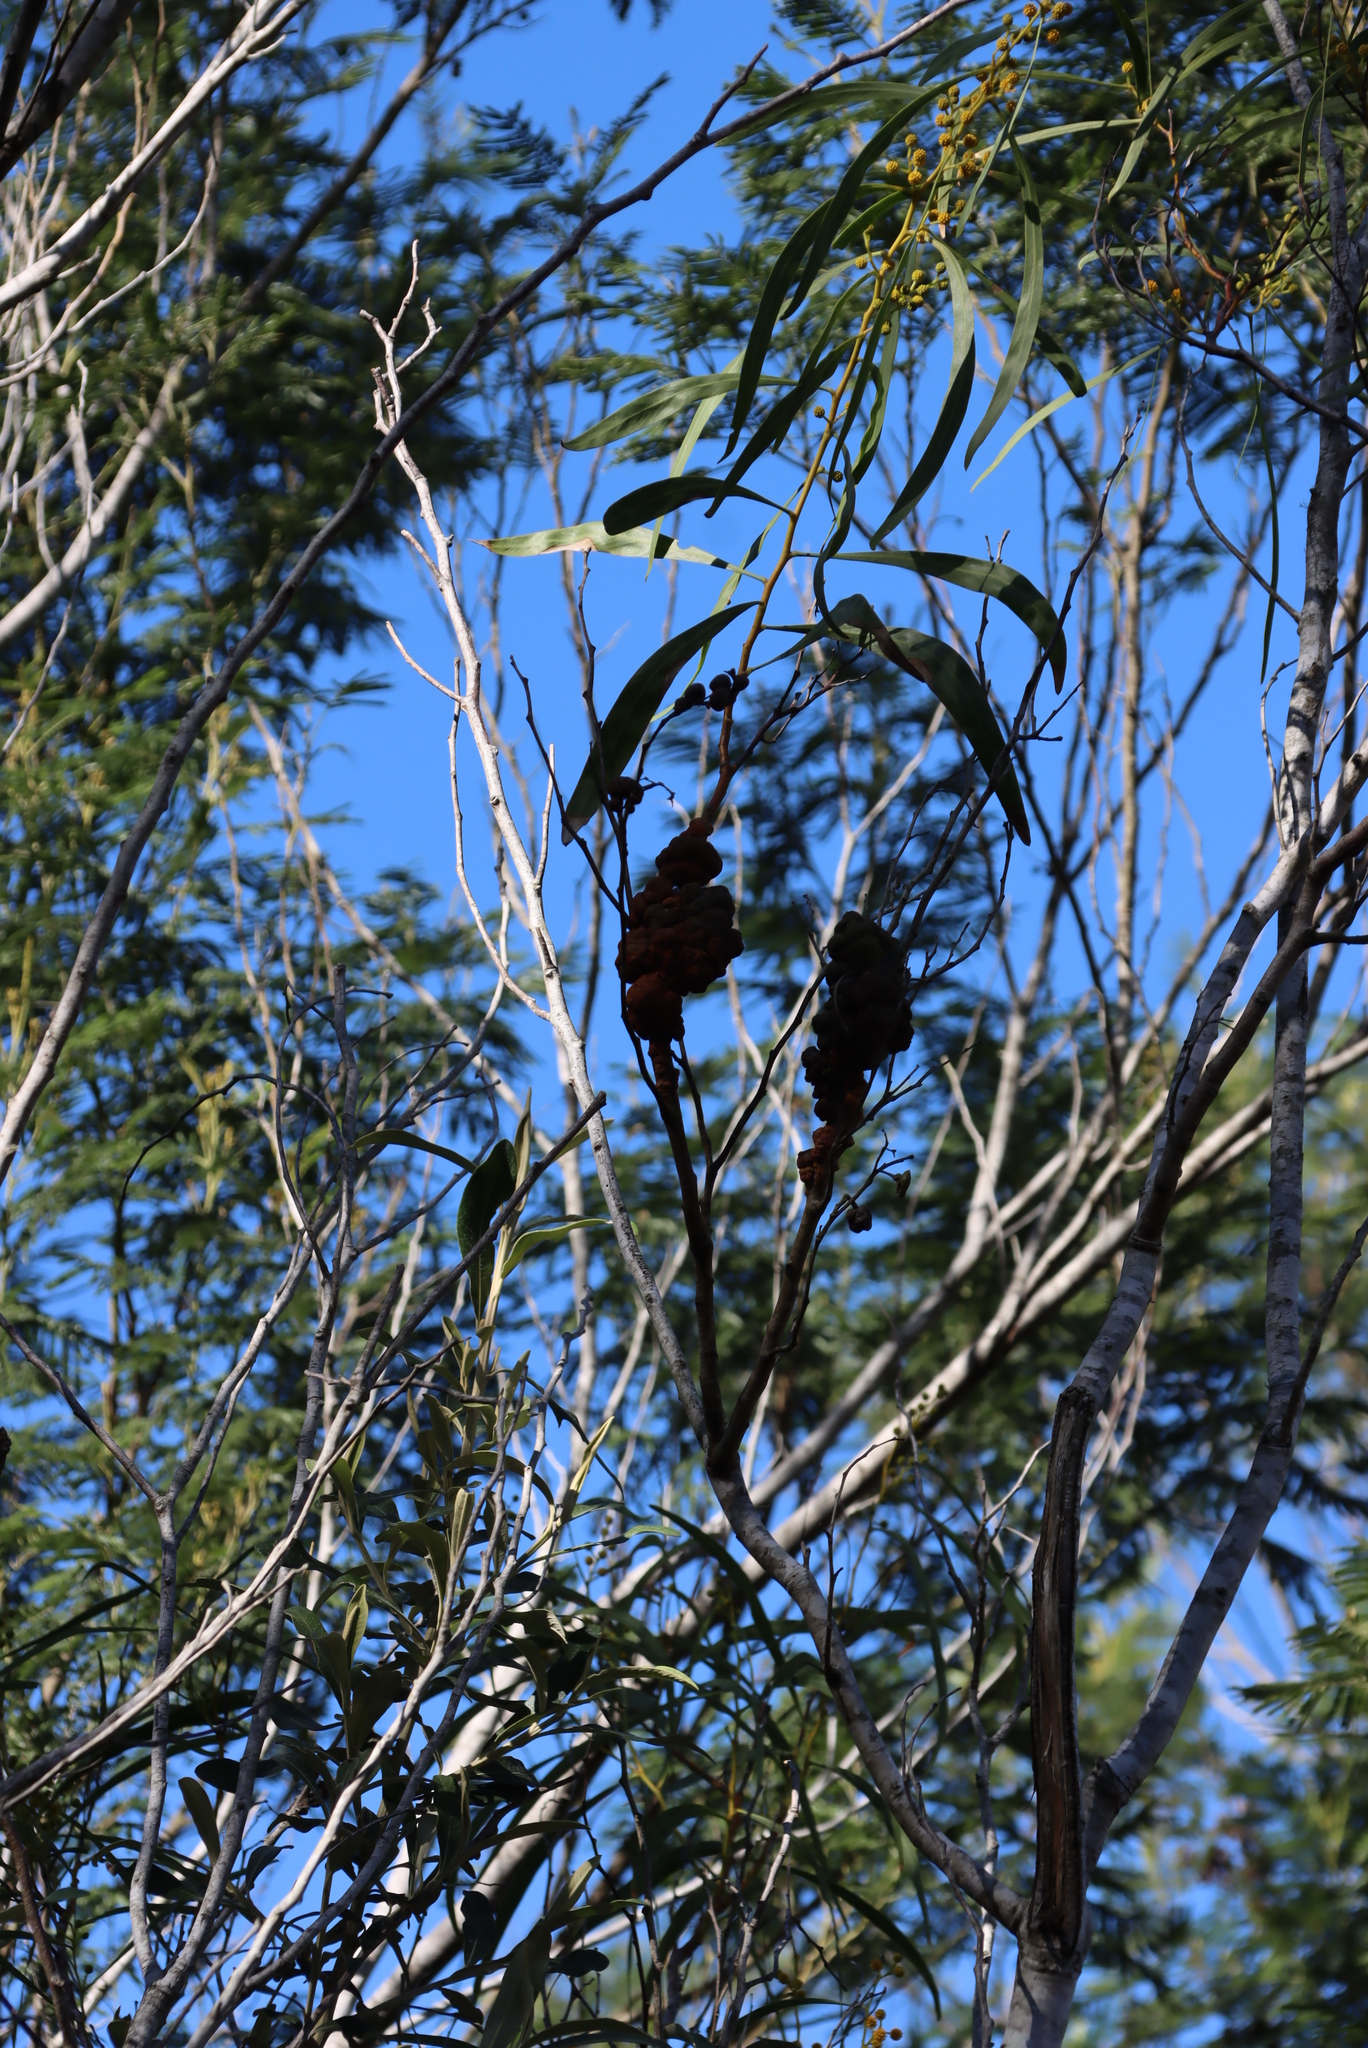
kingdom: Plantae
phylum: Tracheophyta
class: Magnoliopsida
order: Fabales
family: Fabaceae
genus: Acacia
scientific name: Acacia saligna
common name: Orange wattle
